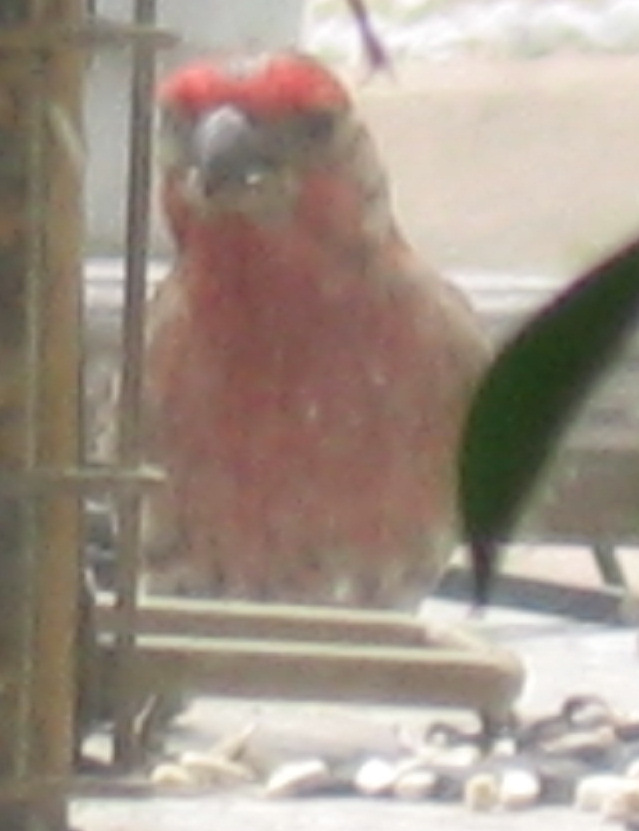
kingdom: Animalia
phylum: Chordata
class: Aves
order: Passeriformes
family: Fringillidae
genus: Haemorhous
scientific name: Haemorhous mexicanus
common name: House finch
